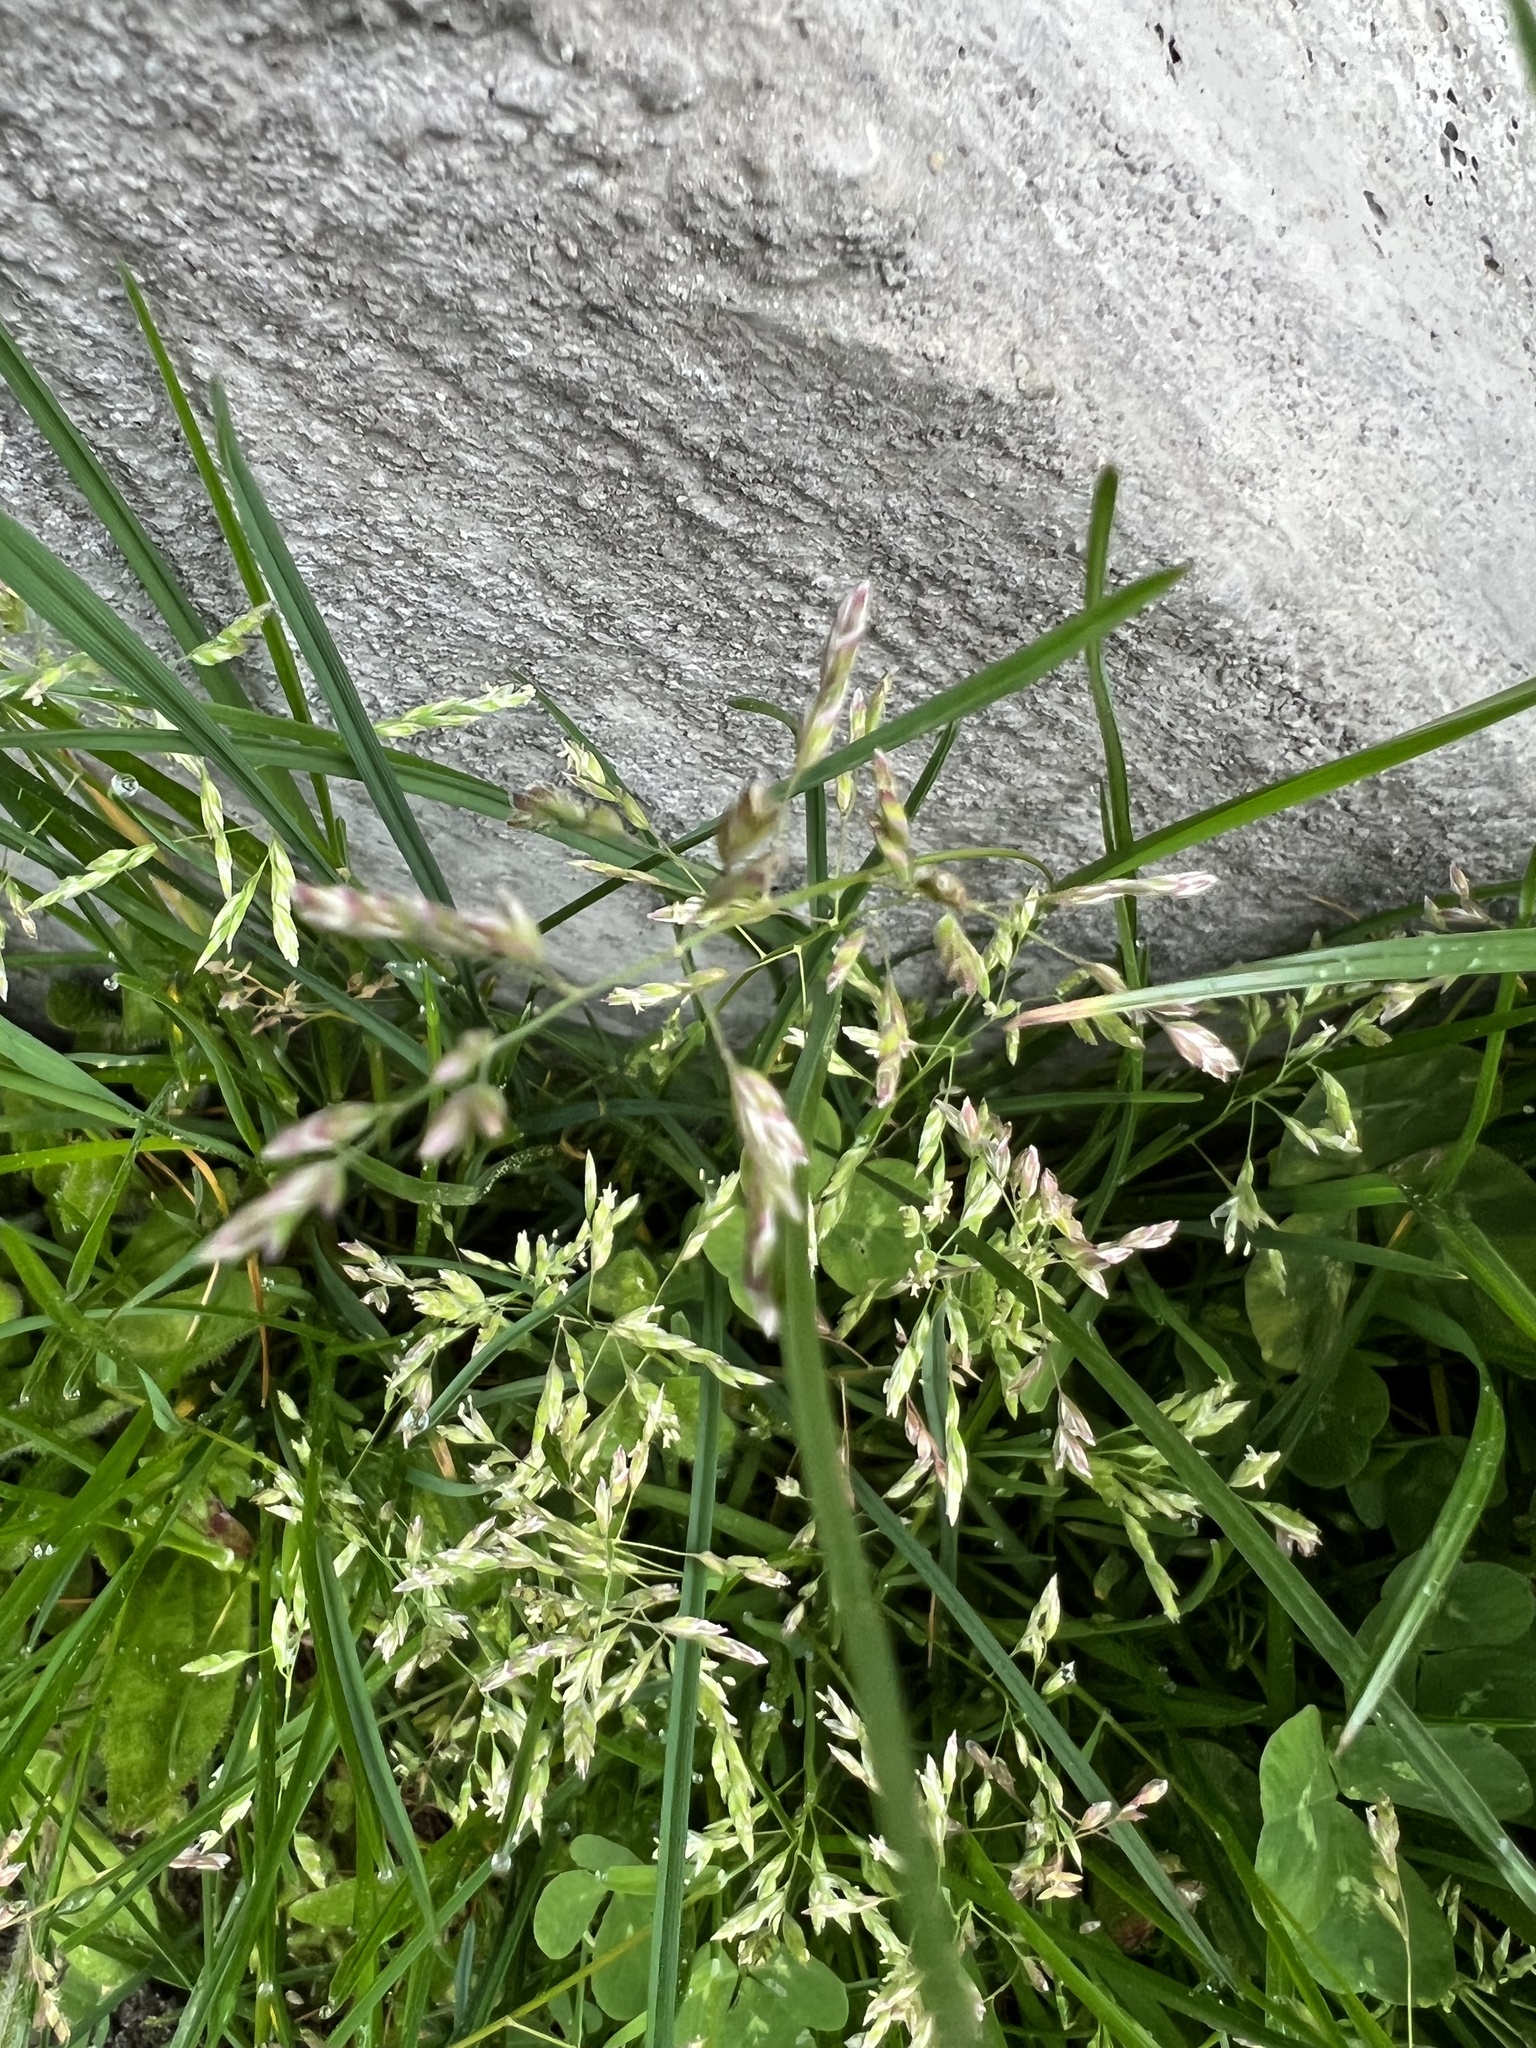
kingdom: Plantae
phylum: Tracheophyta
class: Liliopsida
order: Poales
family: Poaceae
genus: Poa
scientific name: Poa annua
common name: Annual bluegrass
